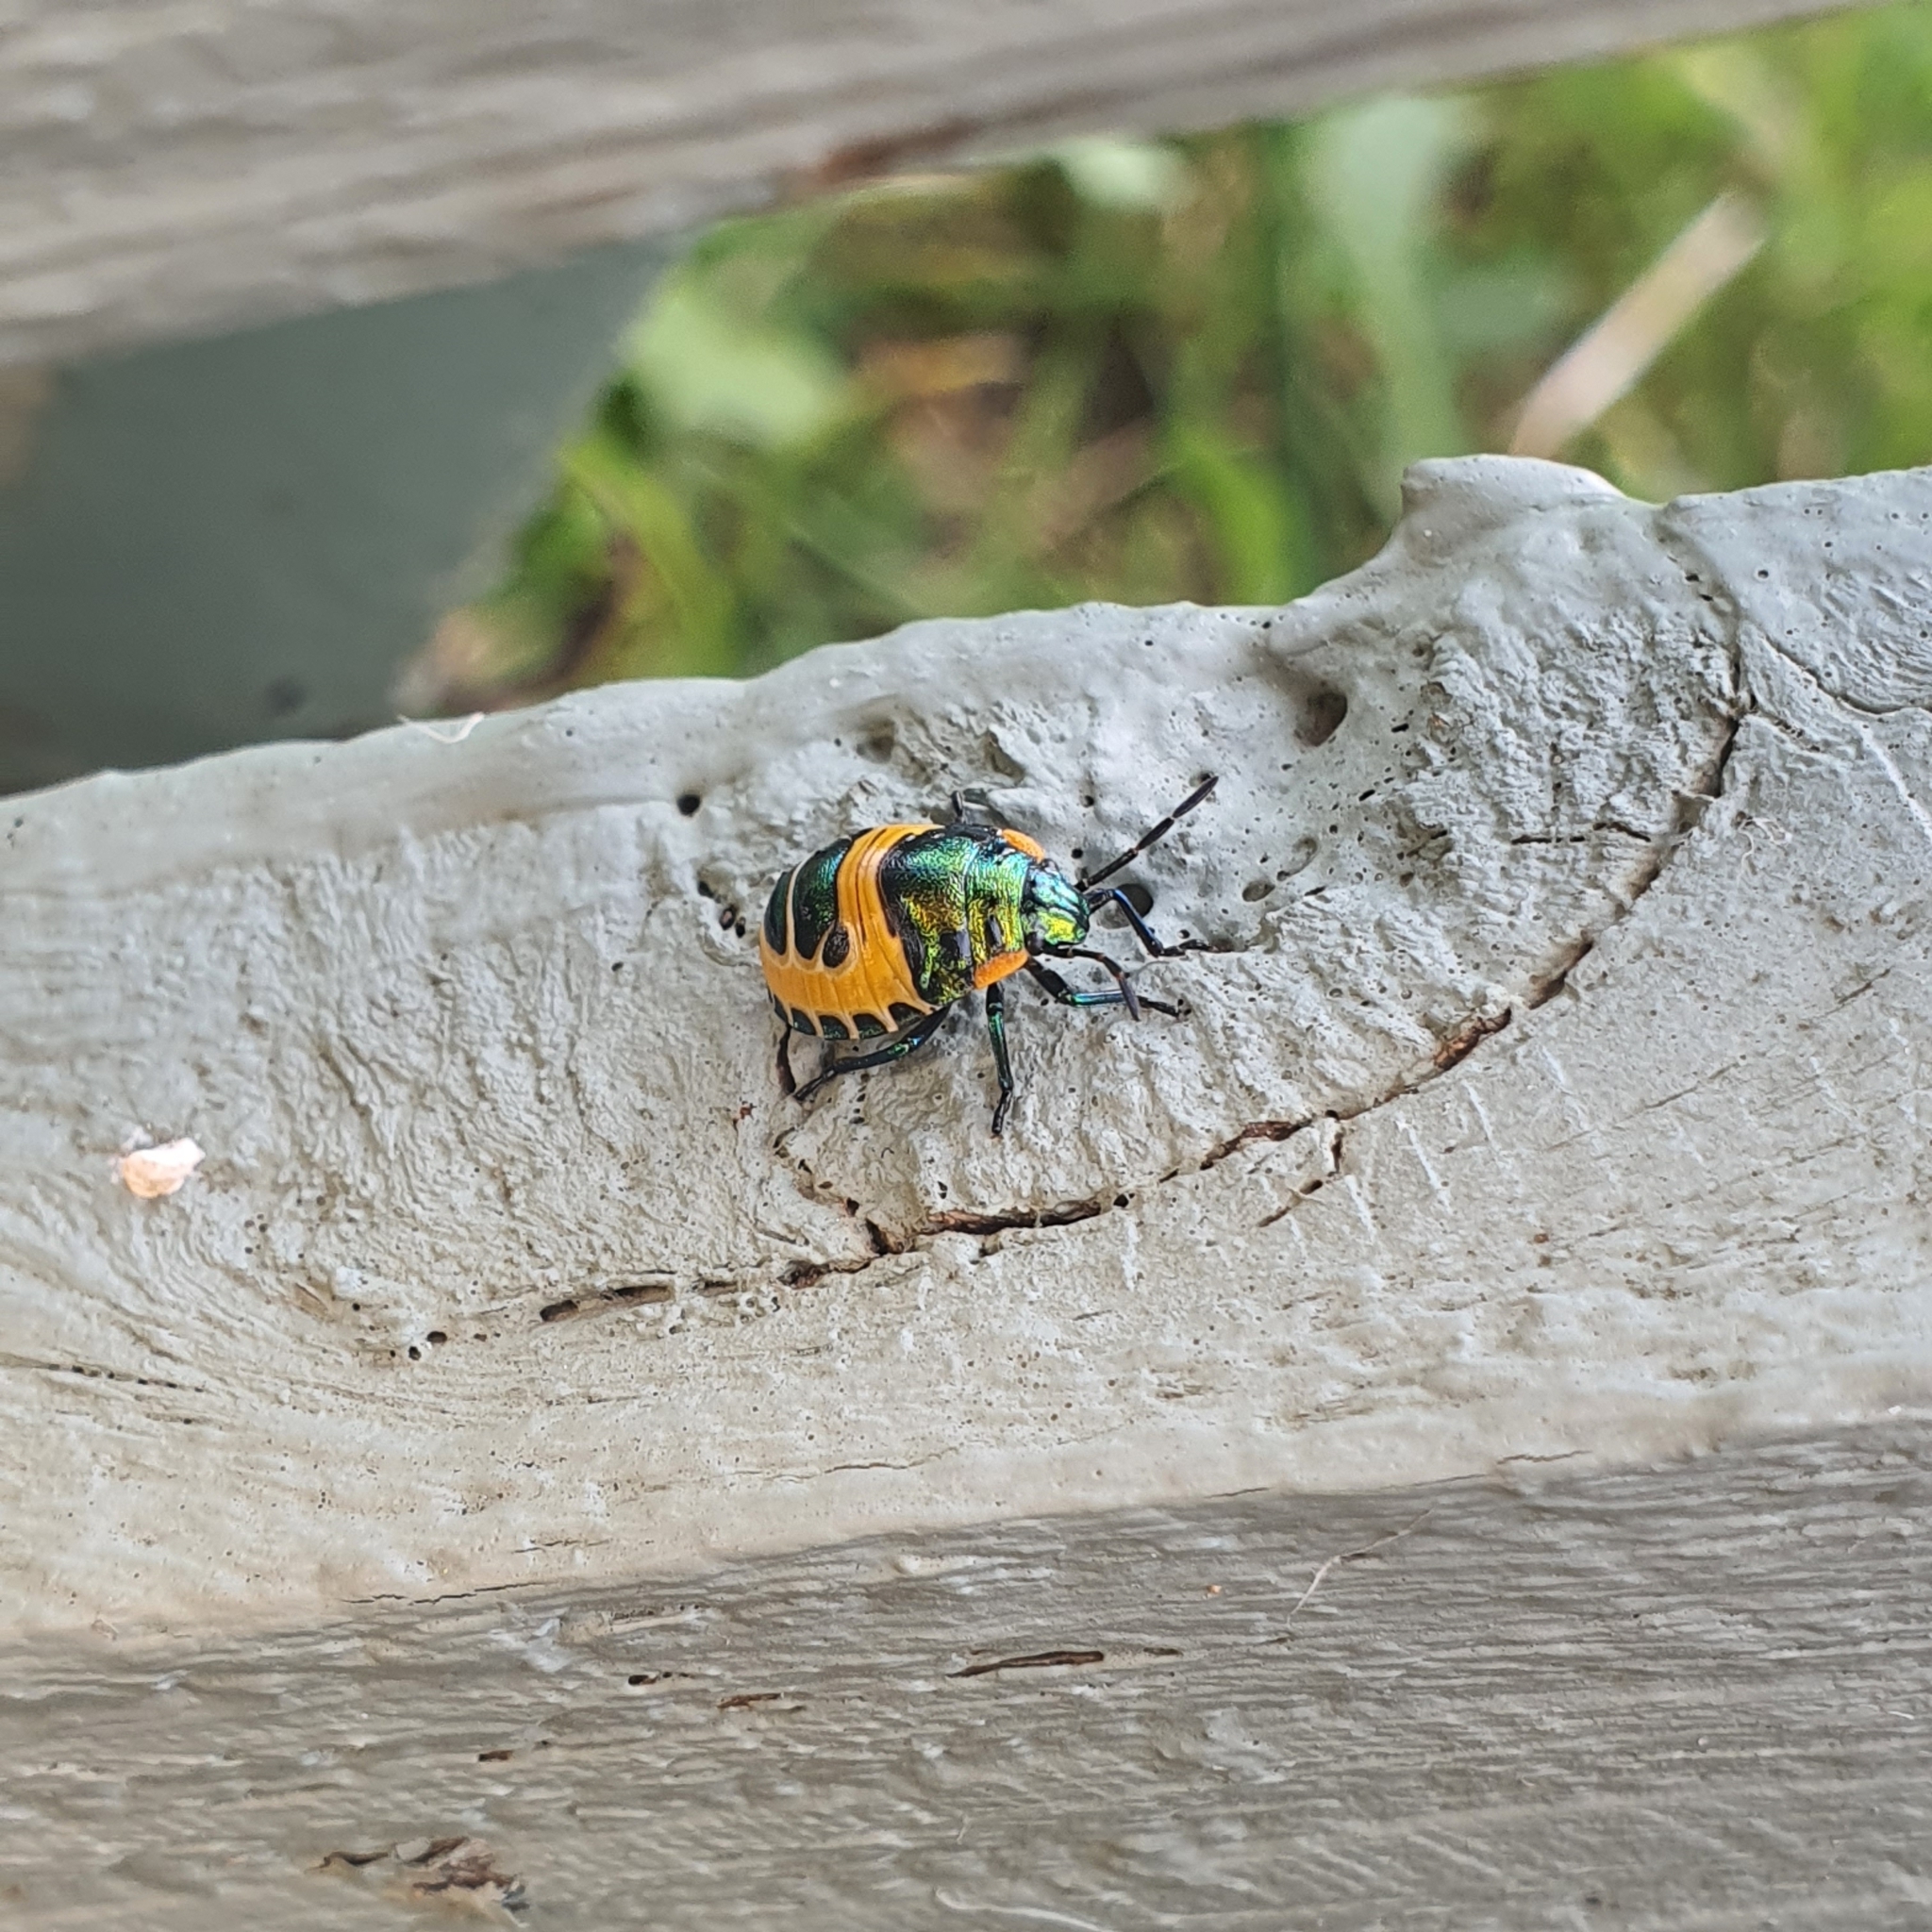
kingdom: Animalia
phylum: Arthropoda
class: Insecta
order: Hemiptera
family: Scutelleridae
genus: Scutiphora
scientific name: Scutiphora pedicellata
